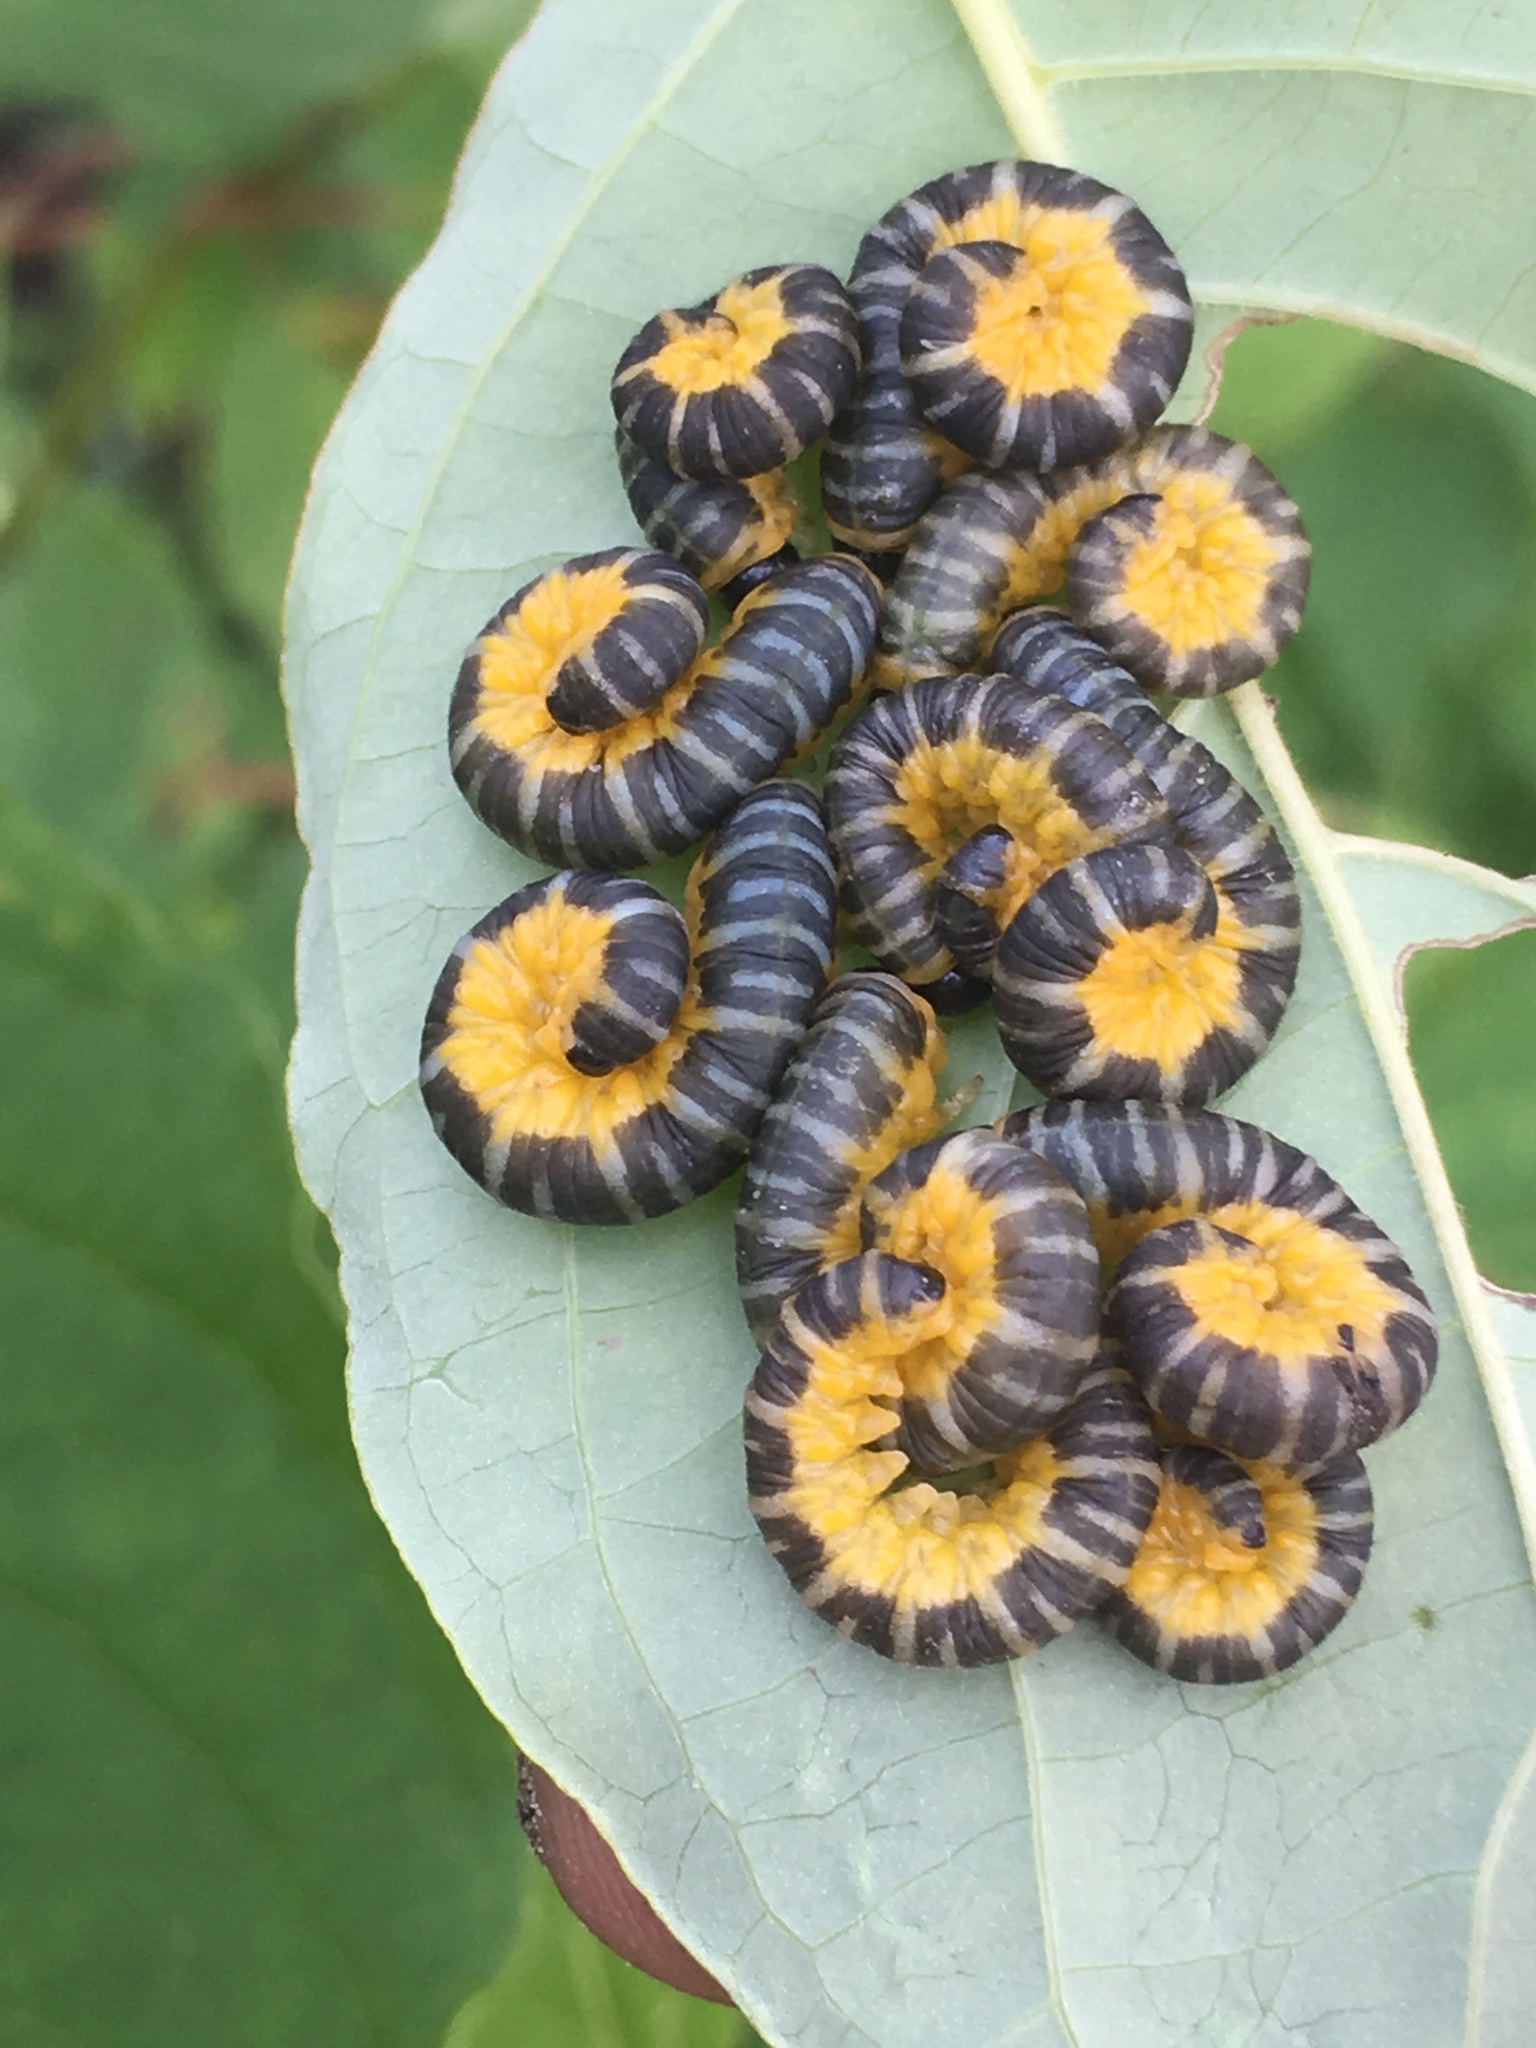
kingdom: Animalia
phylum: Arthropoda
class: Insecta
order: Hymenoptera
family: Tenthredinidae
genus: Macremphytus
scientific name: Macremphytus
